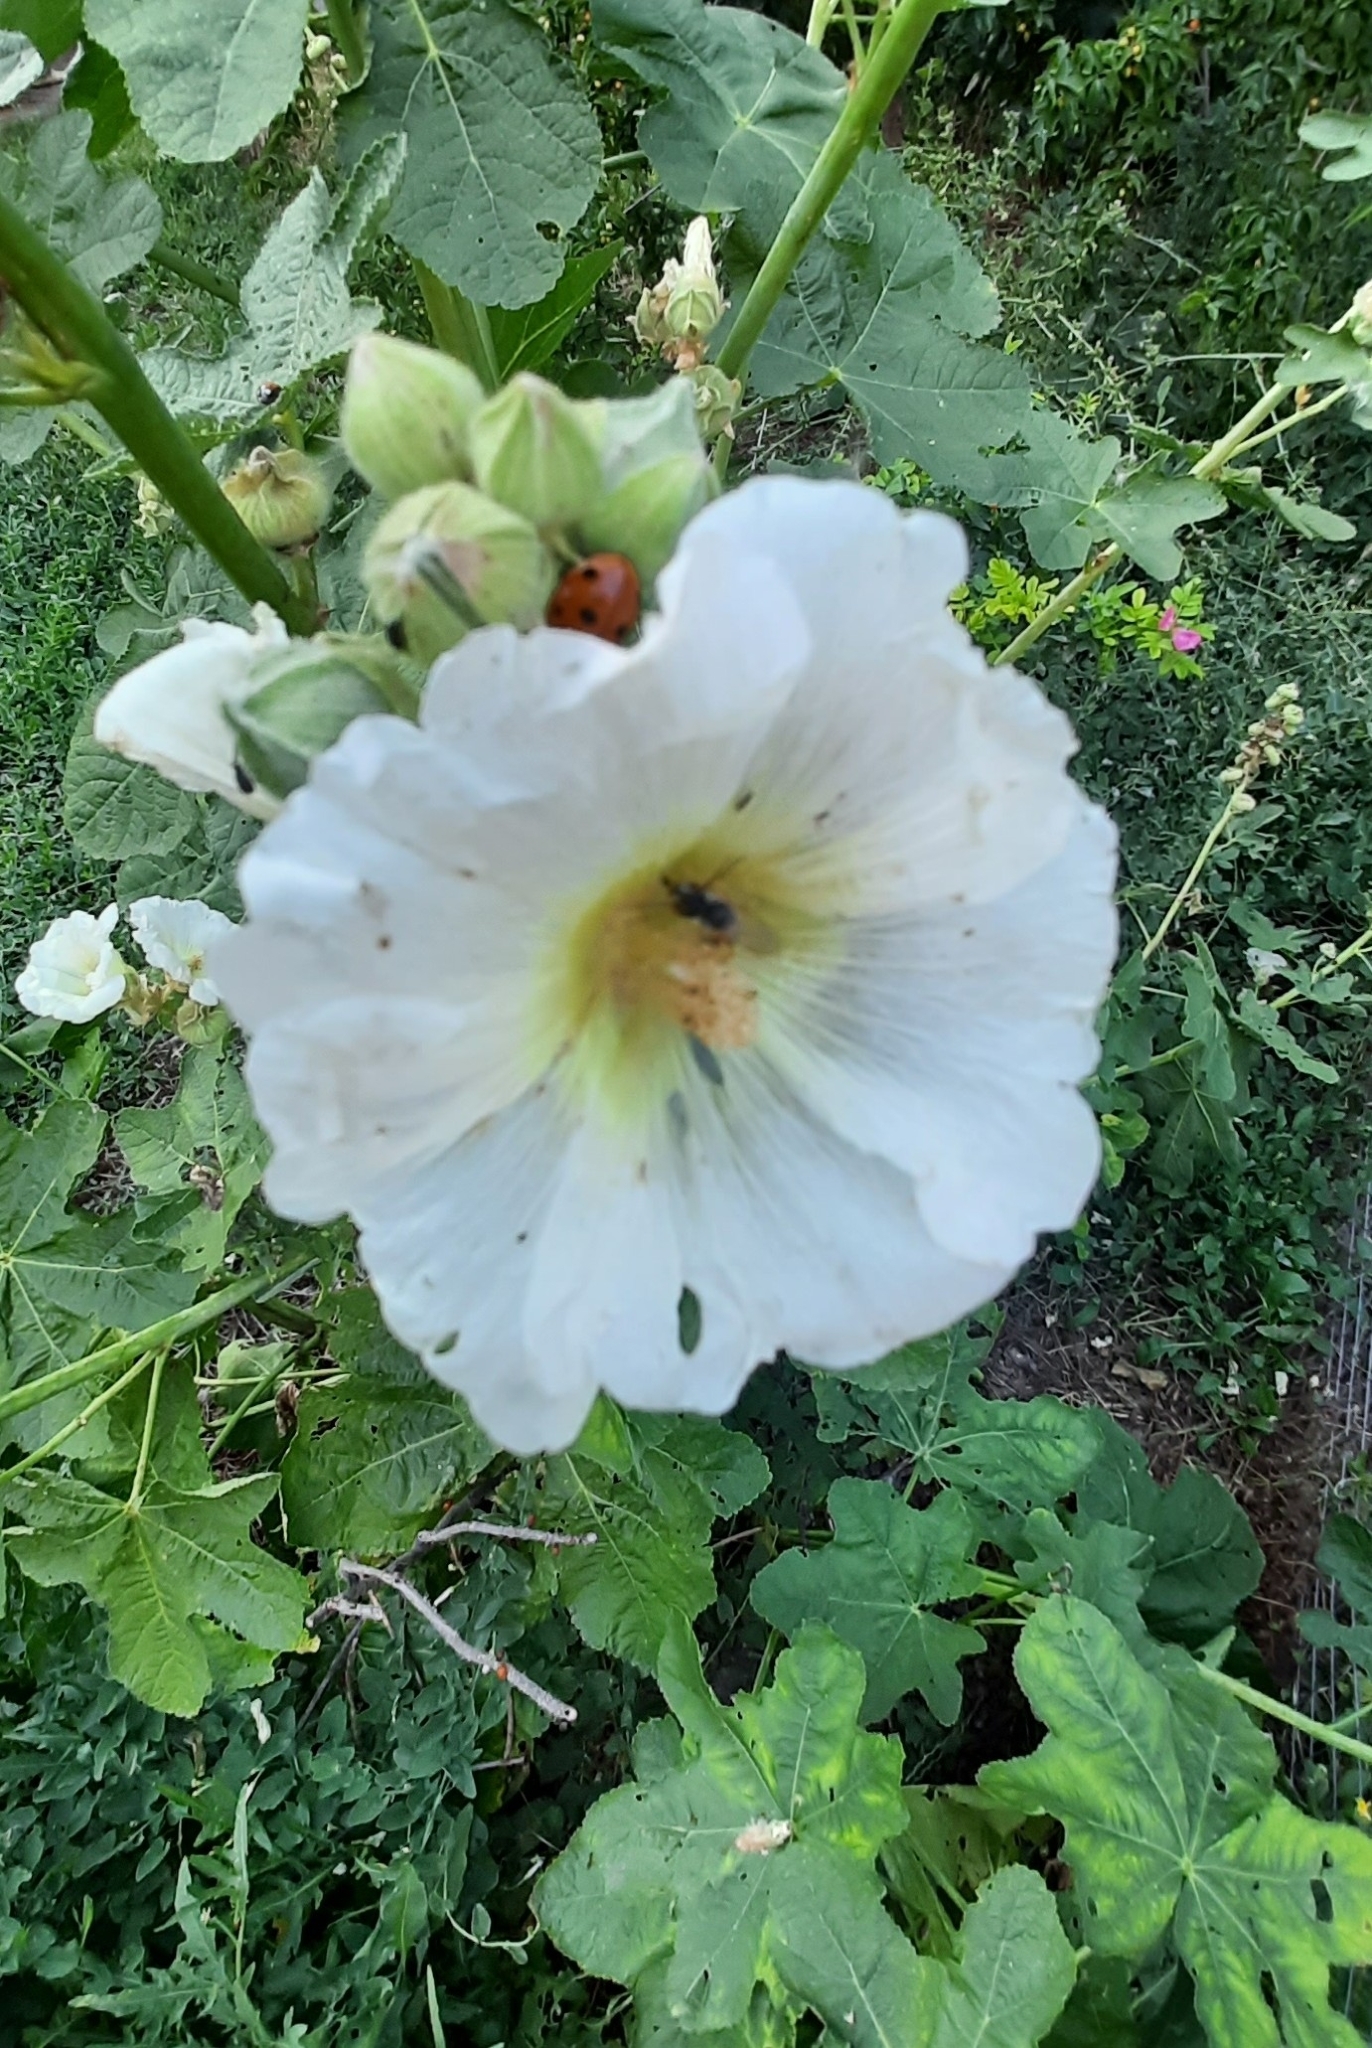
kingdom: Plantae
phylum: Tracheophyta
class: Magnoliopsida
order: Malvales
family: Malvaceae
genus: Alcea
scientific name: Alcea rosea
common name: Hollyhock
